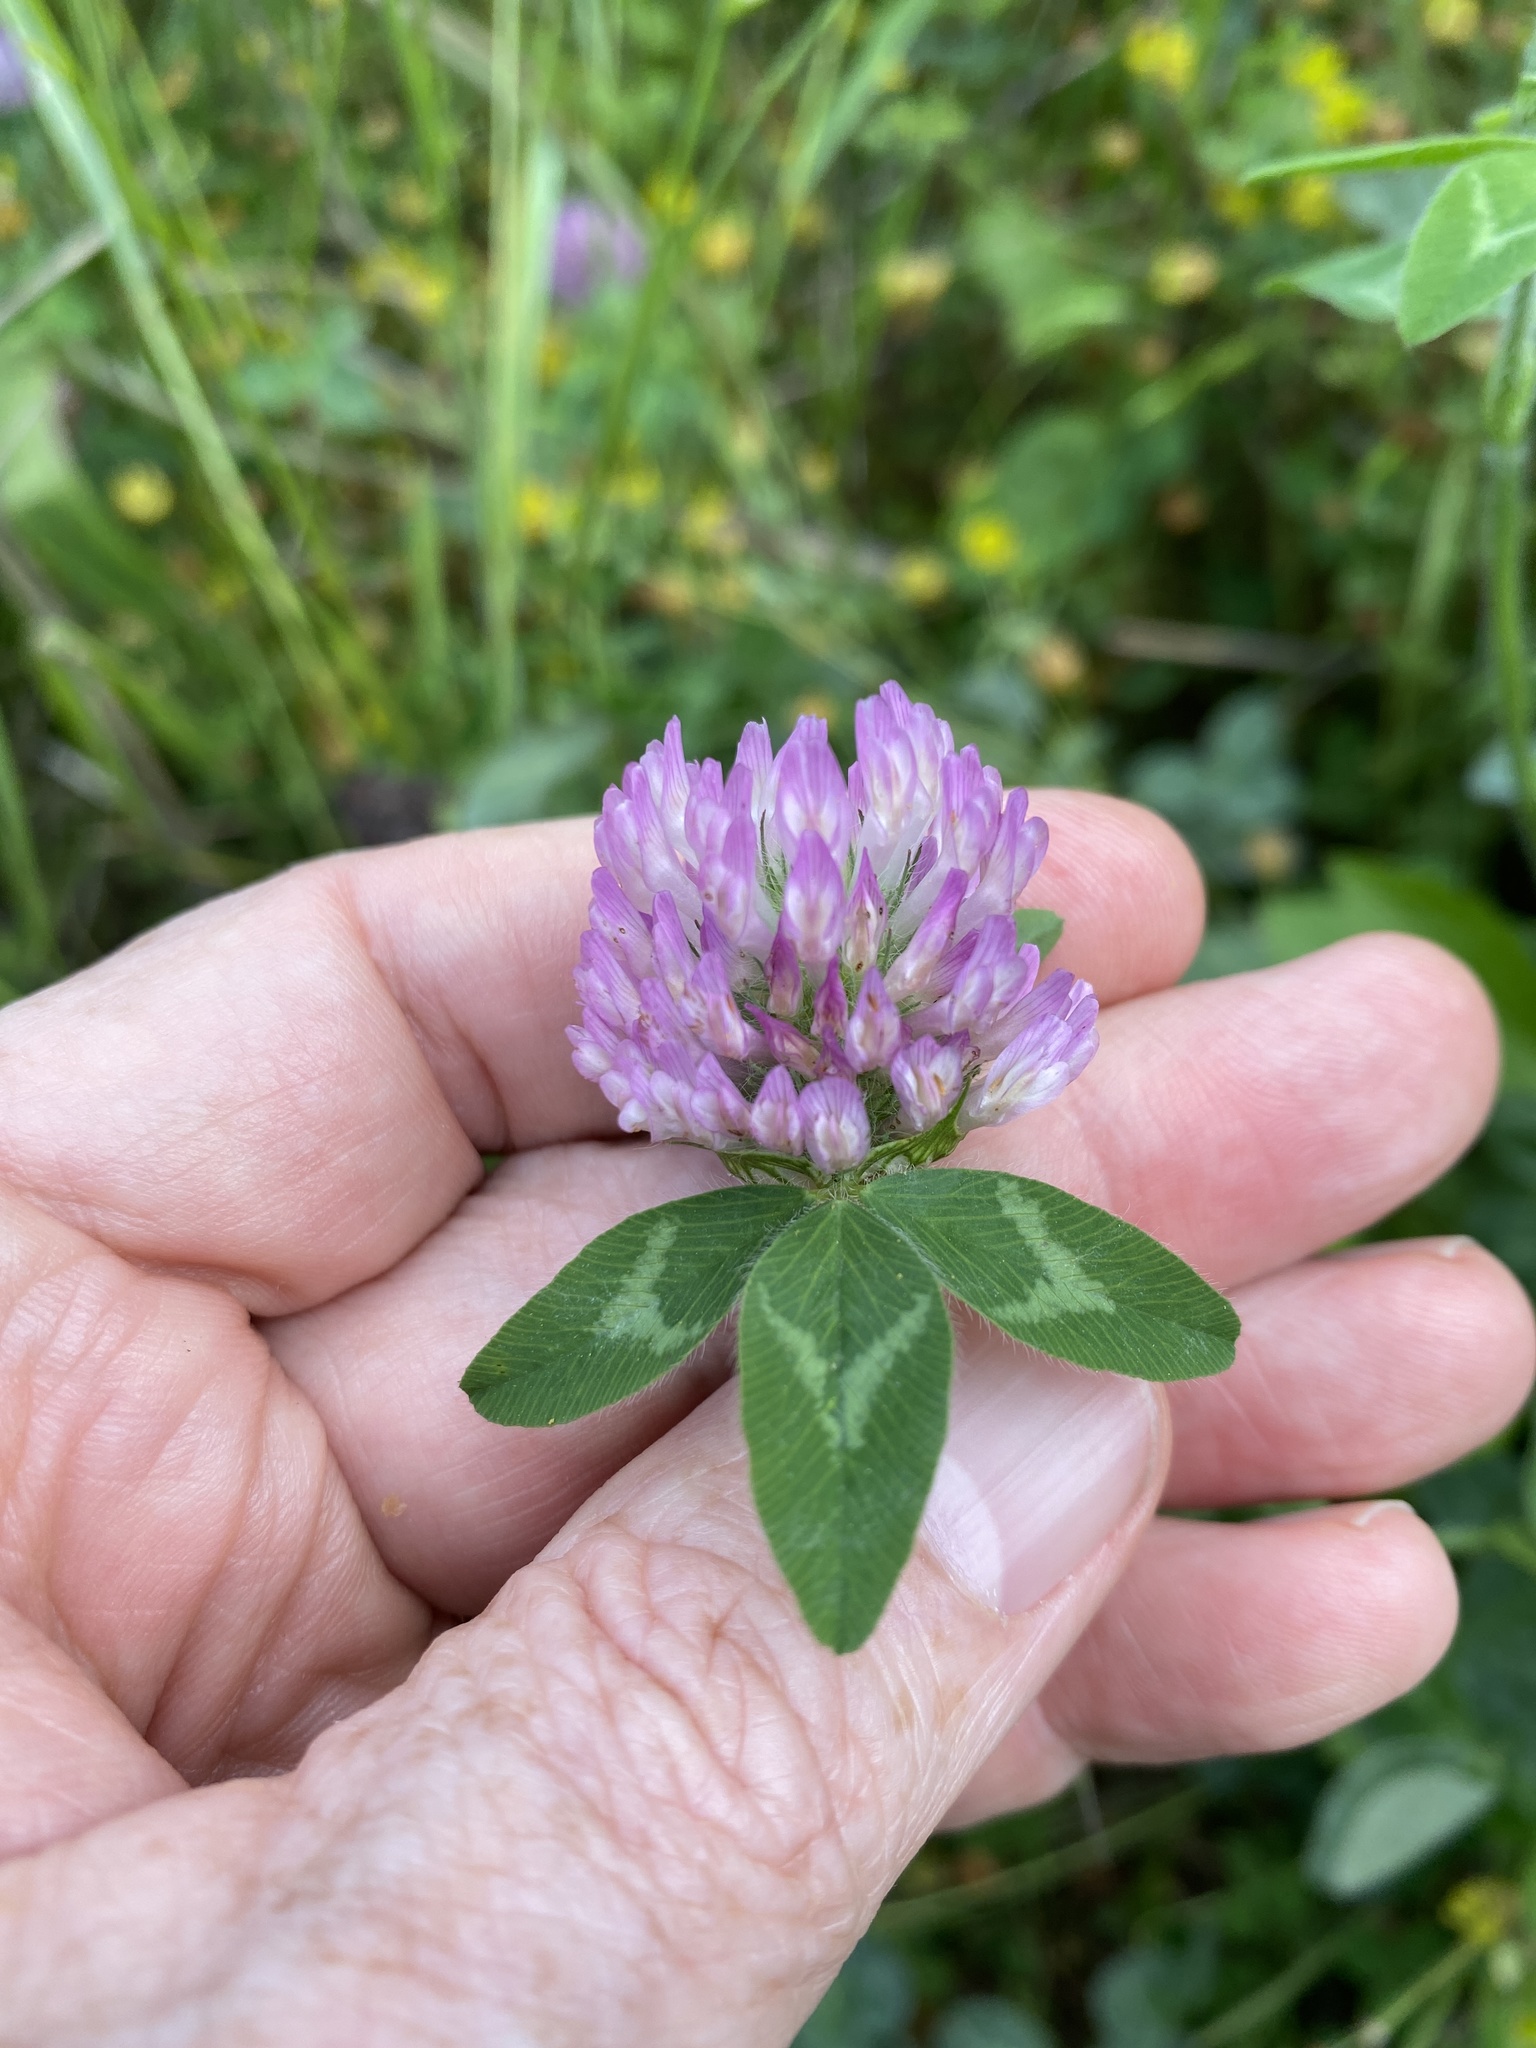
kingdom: Plantae
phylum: Tracheophyta
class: Magnoliopsida
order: Fabales
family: Fabaceae
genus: Trifolium
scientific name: Trifolium pratense
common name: Red clover
